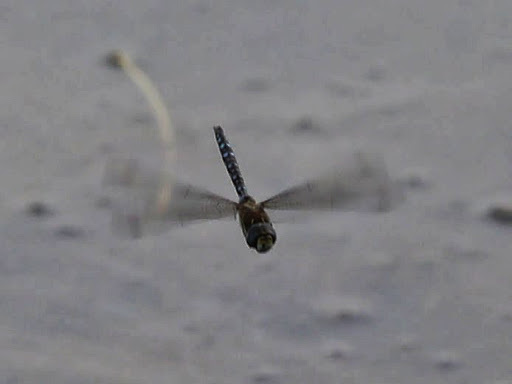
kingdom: Animalia
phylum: Arthropoda
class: Insecta
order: Odonata
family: Aeshnidae
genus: Aeshna
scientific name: Aeshna mixta
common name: Migrant hawker
